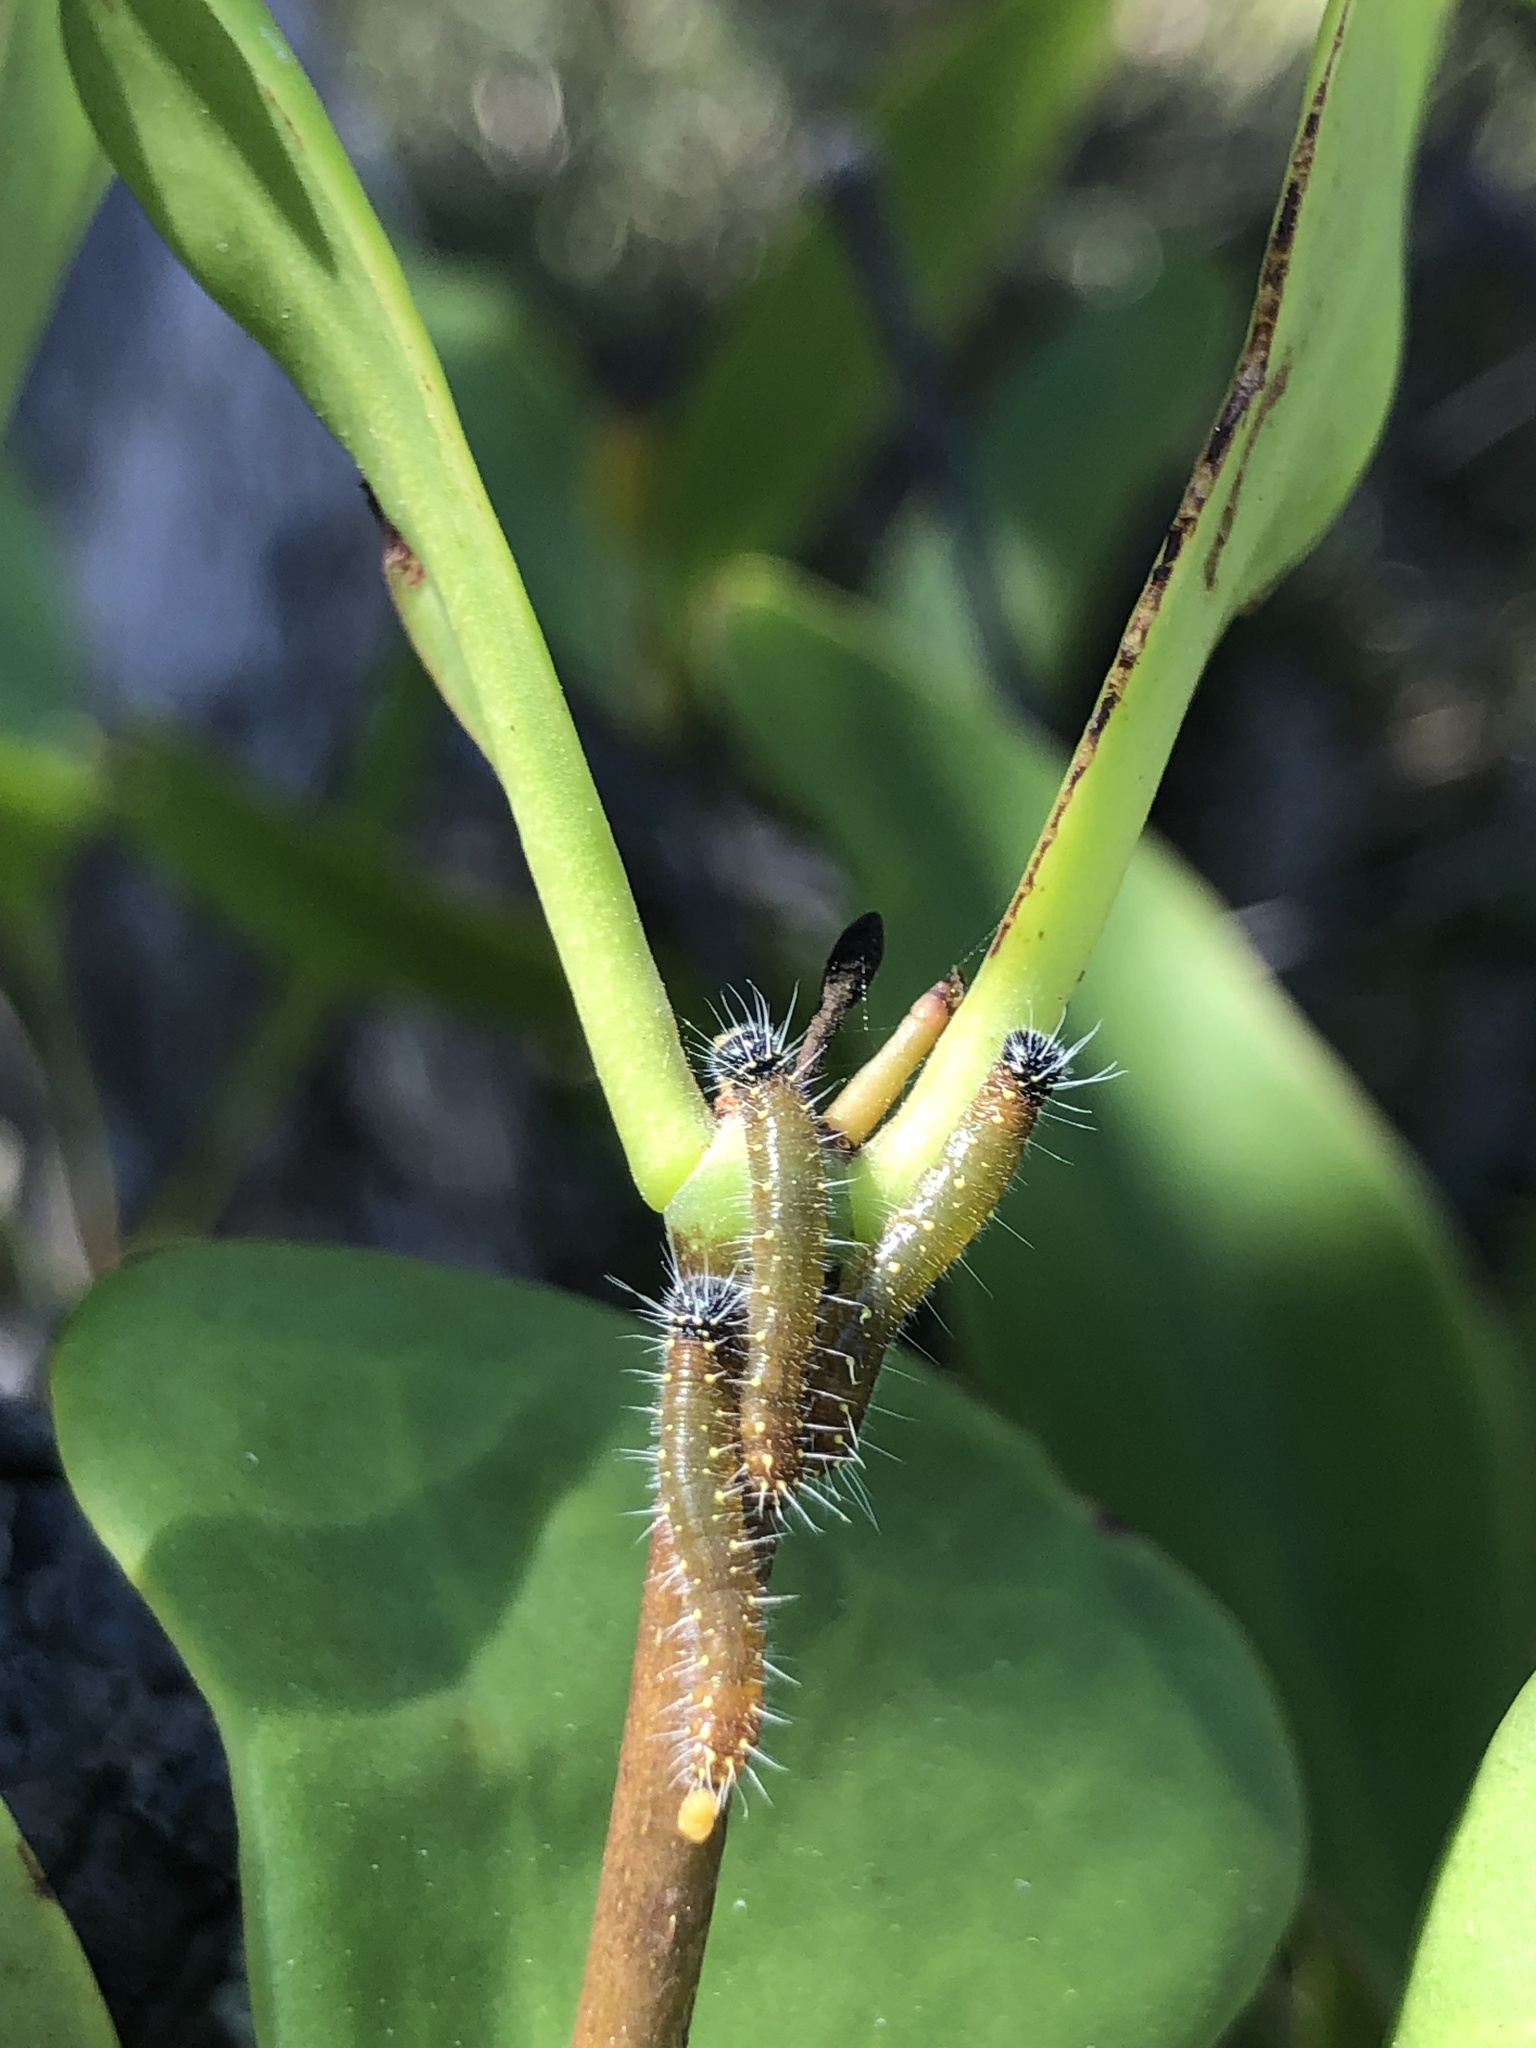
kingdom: Animalia
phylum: Arthropoda
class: Insecta
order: Lepidoptera
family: Pieridae
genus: Delias
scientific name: Delias nigrina
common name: Black jezebel
